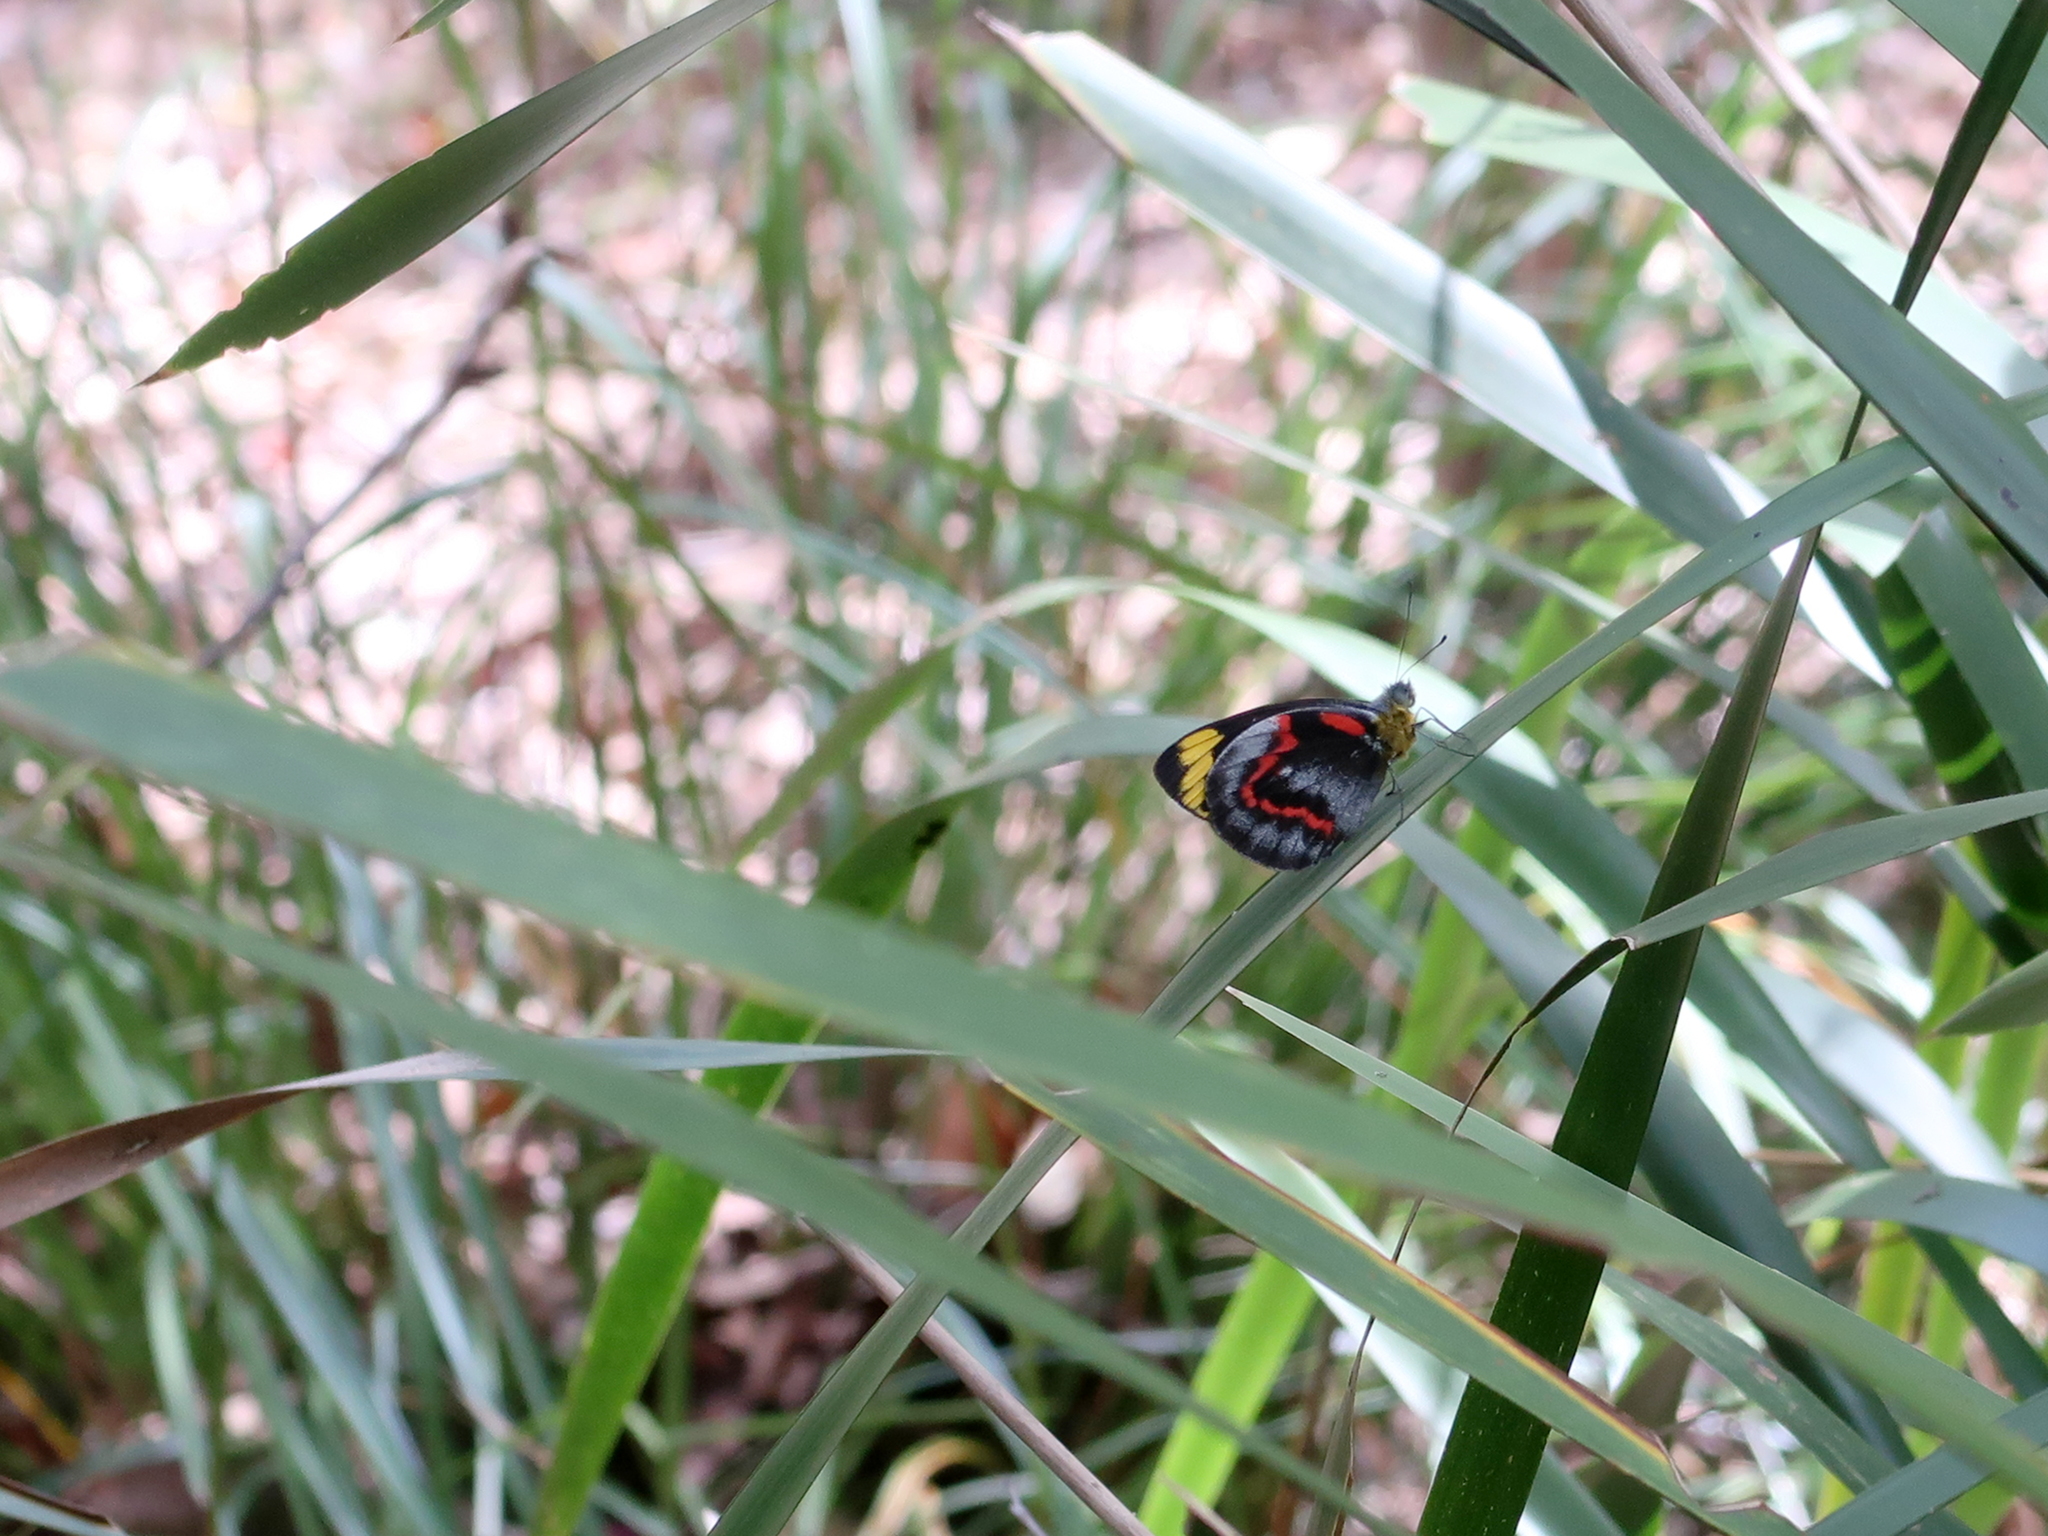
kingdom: Animalia
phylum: Arthropoda
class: Insecta
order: Lepidoptera
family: Pieridae
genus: Delias
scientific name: Delias nigrina
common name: Black jezebel
